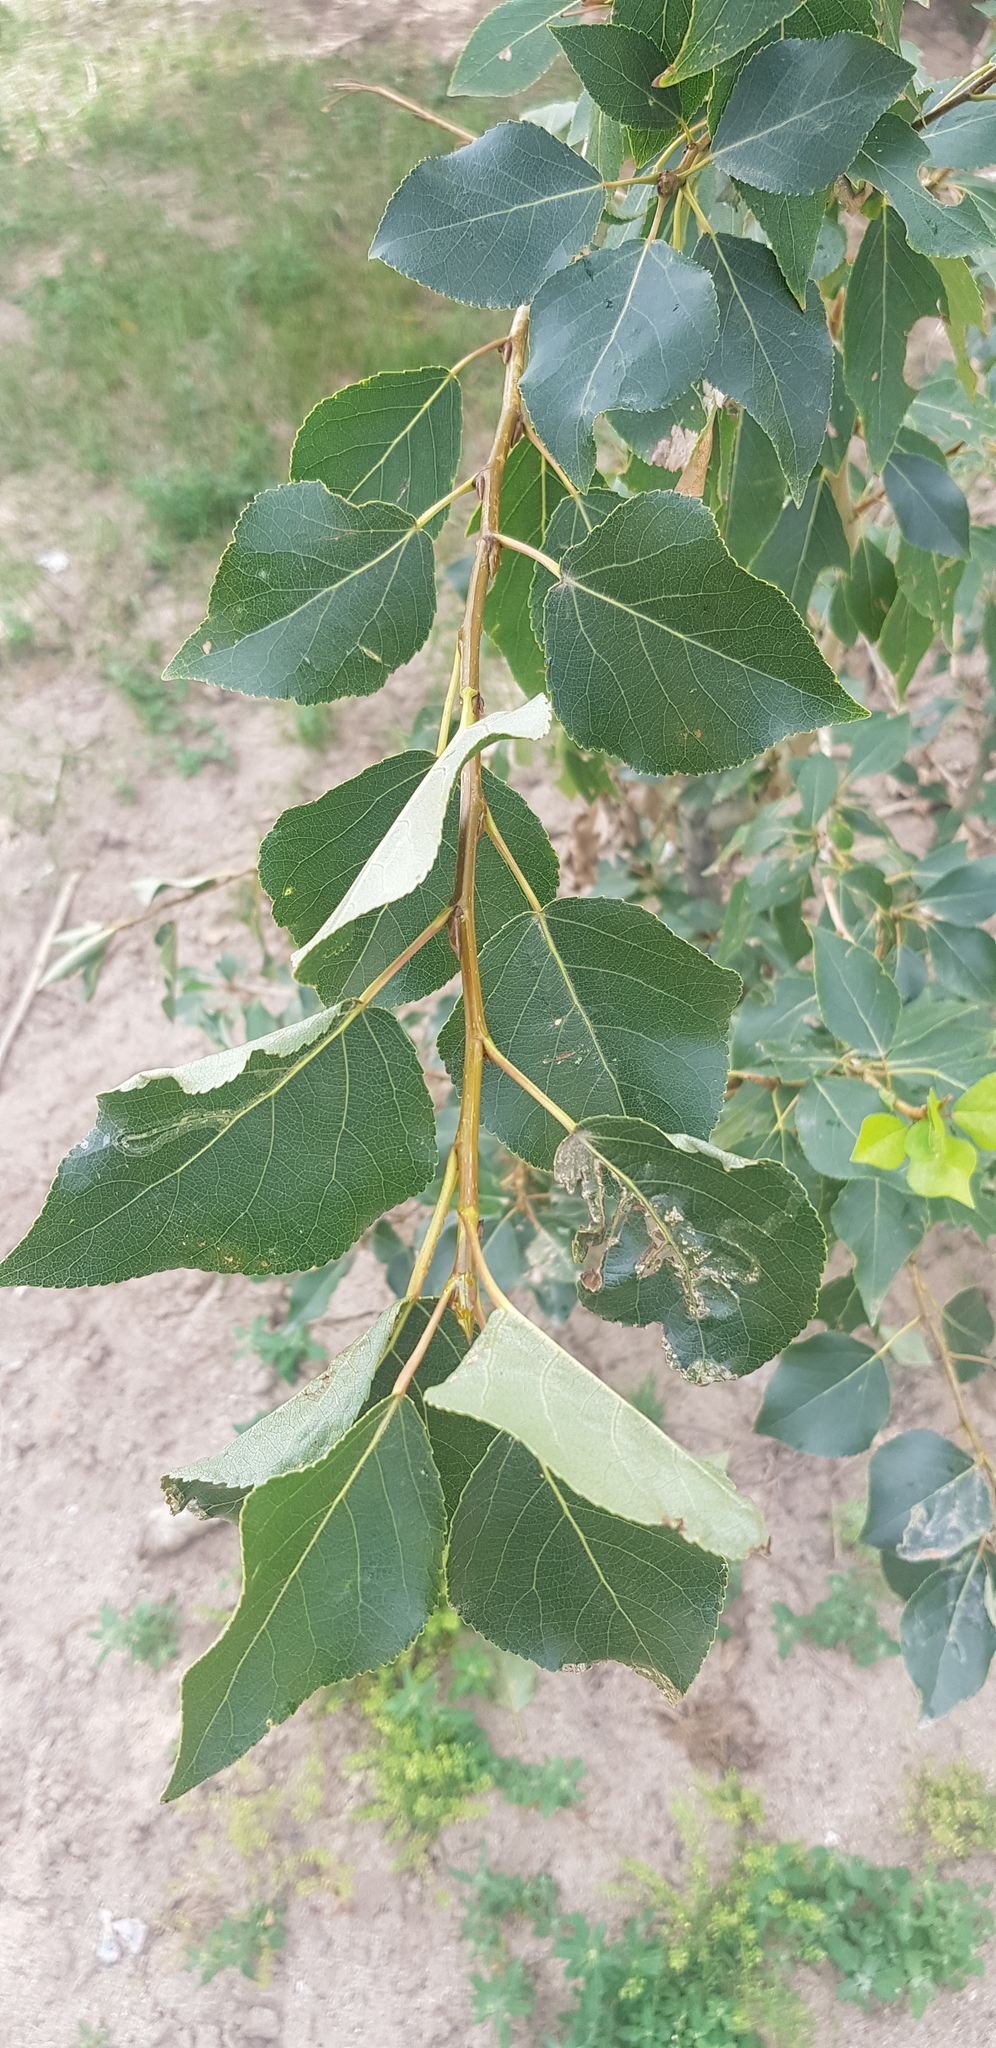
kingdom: Plantae
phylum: Tracheophyta
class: Magnoliopsida
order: Malpighiales
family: Salicaceae
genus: Populus
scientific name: Populus suaveolens
